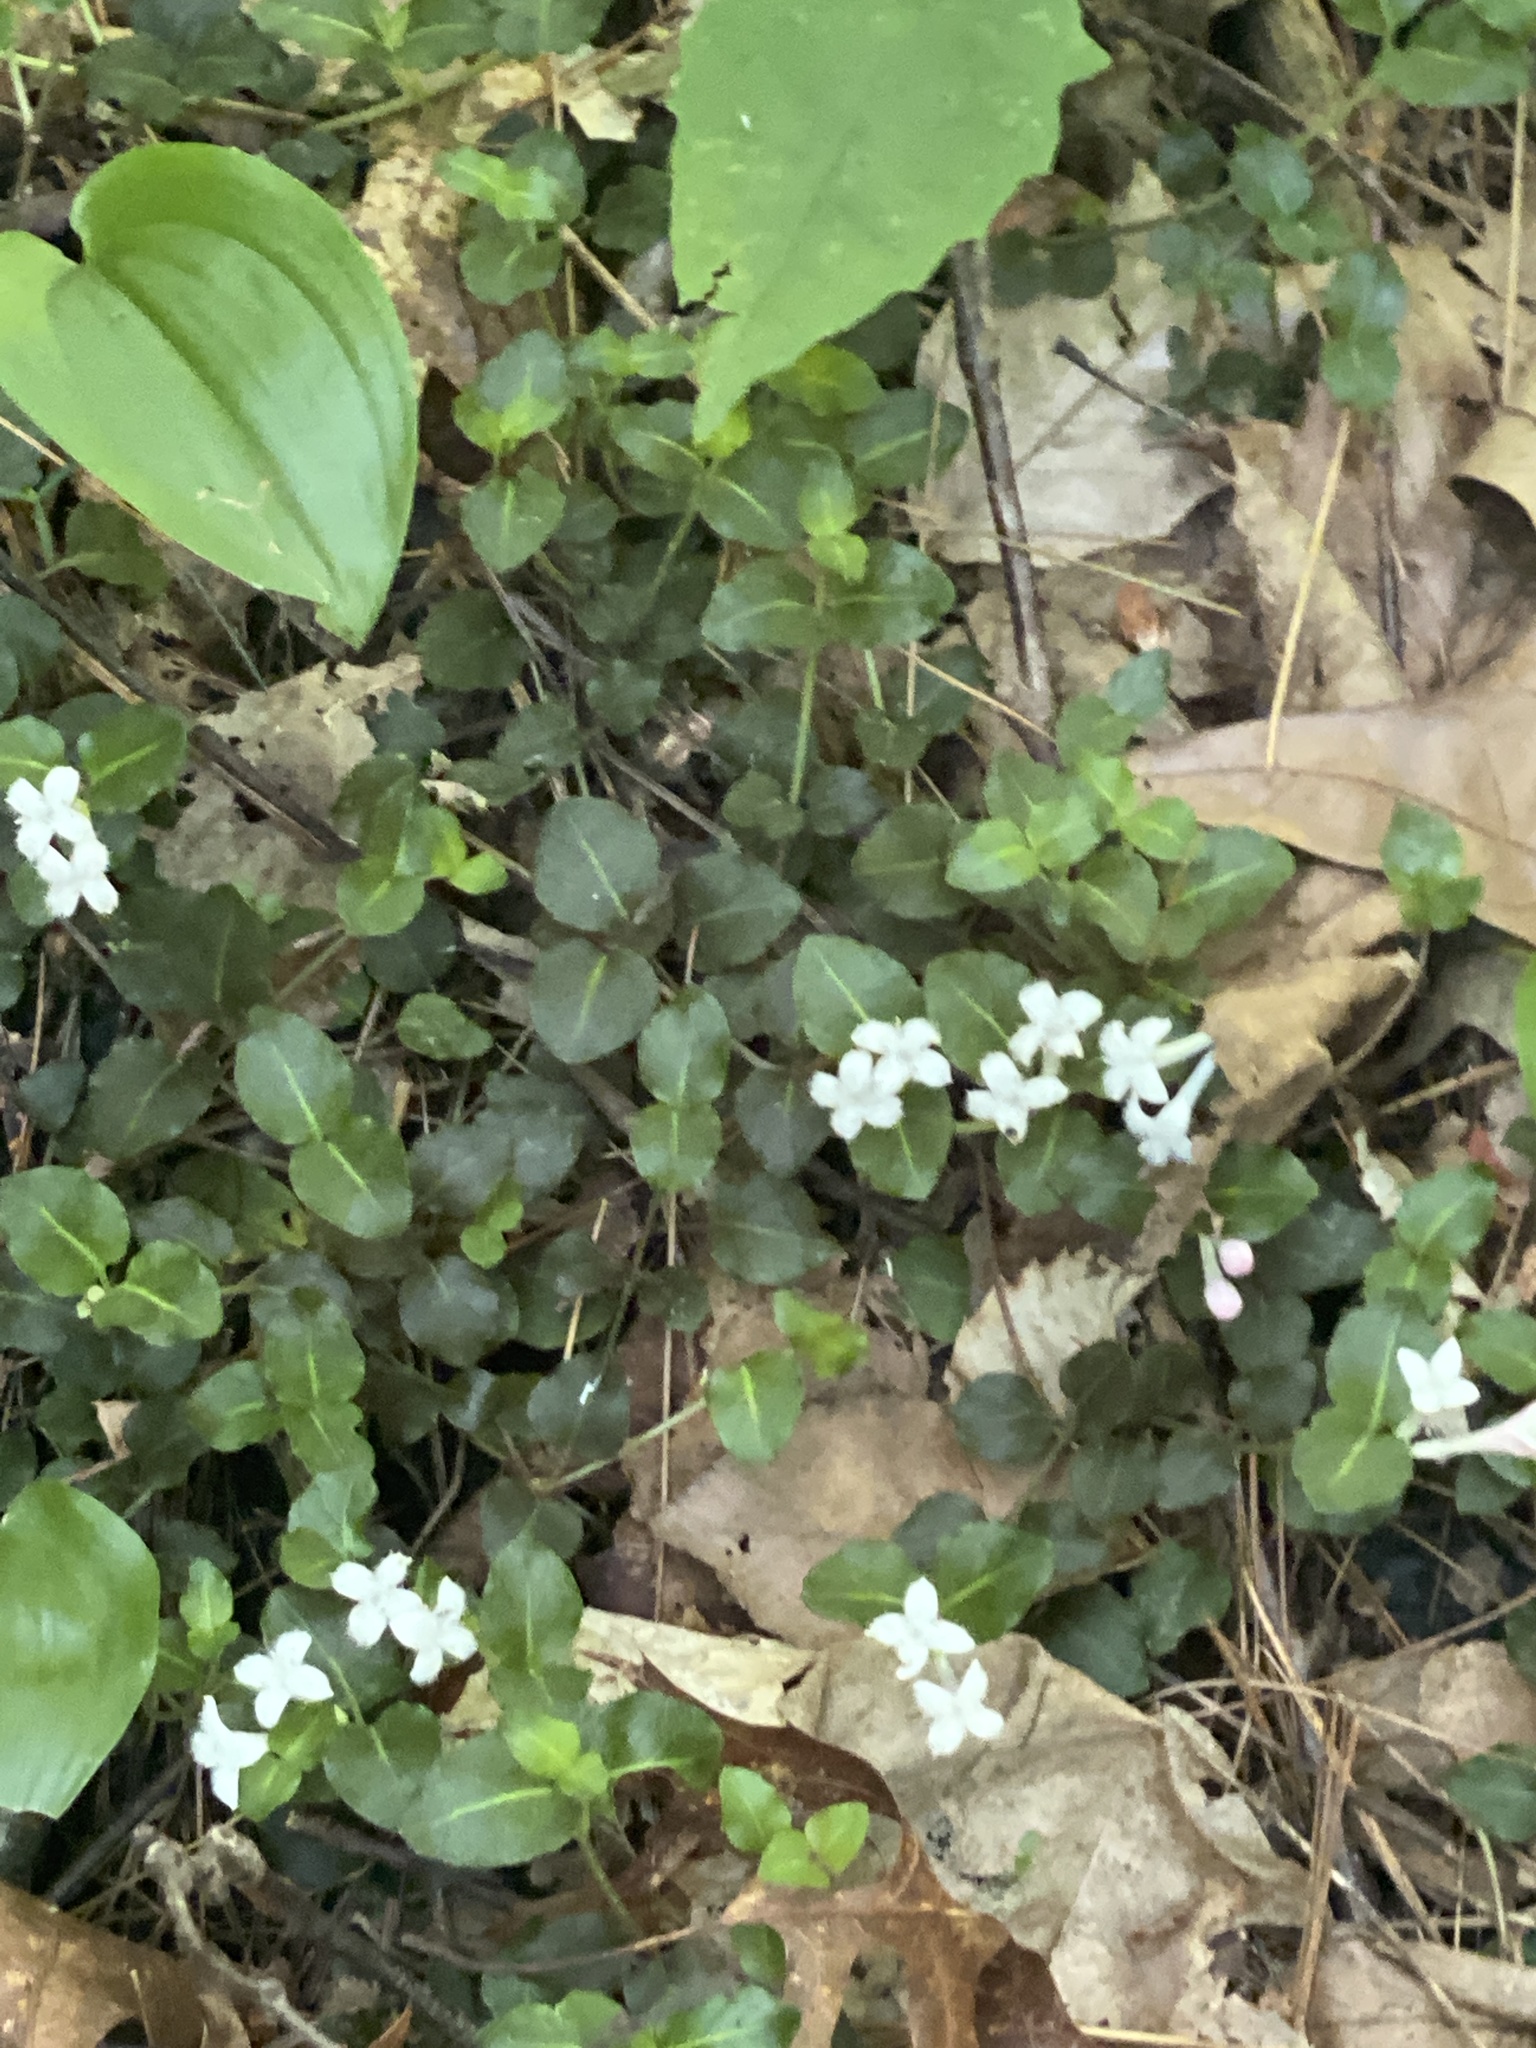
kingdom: Plantae
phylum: Tracheophyta
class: Magnoliopsida
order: Gentianales
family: Rubiaceae
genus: Mitchella
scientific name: Mitchella repens
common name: Partridge-berry
